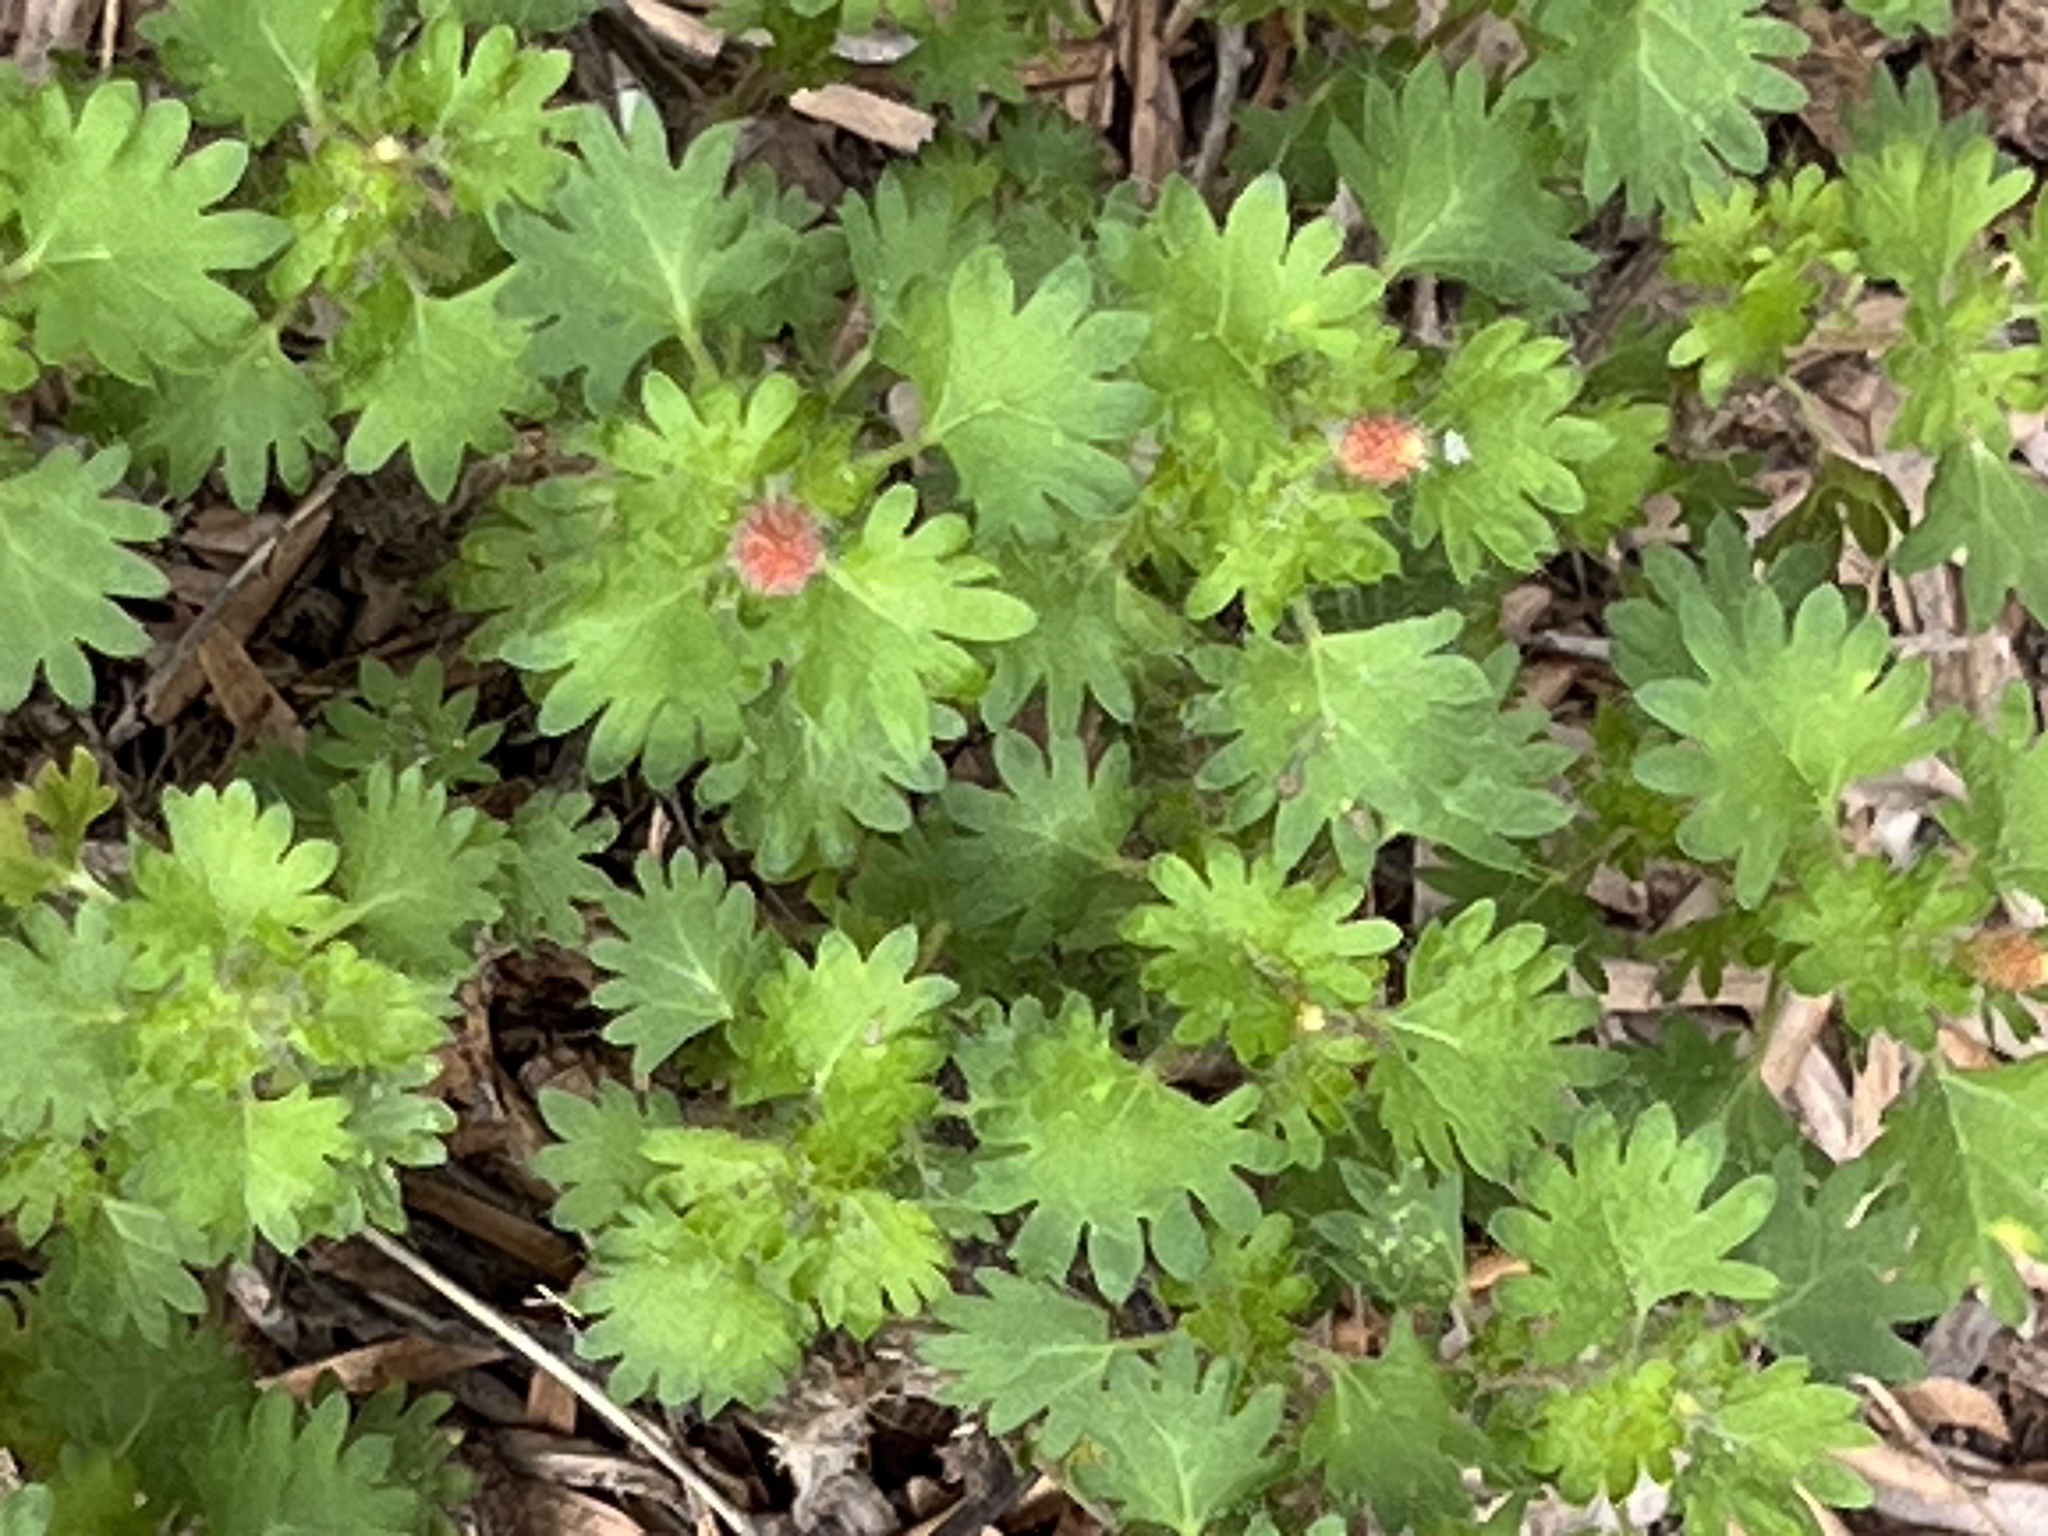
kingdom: Plantae
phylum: Tracheophyta
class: Magnoliopsida
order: Malpighiales
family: Euphorbiaceae
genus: Acalypha
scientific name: Acalypha radians
